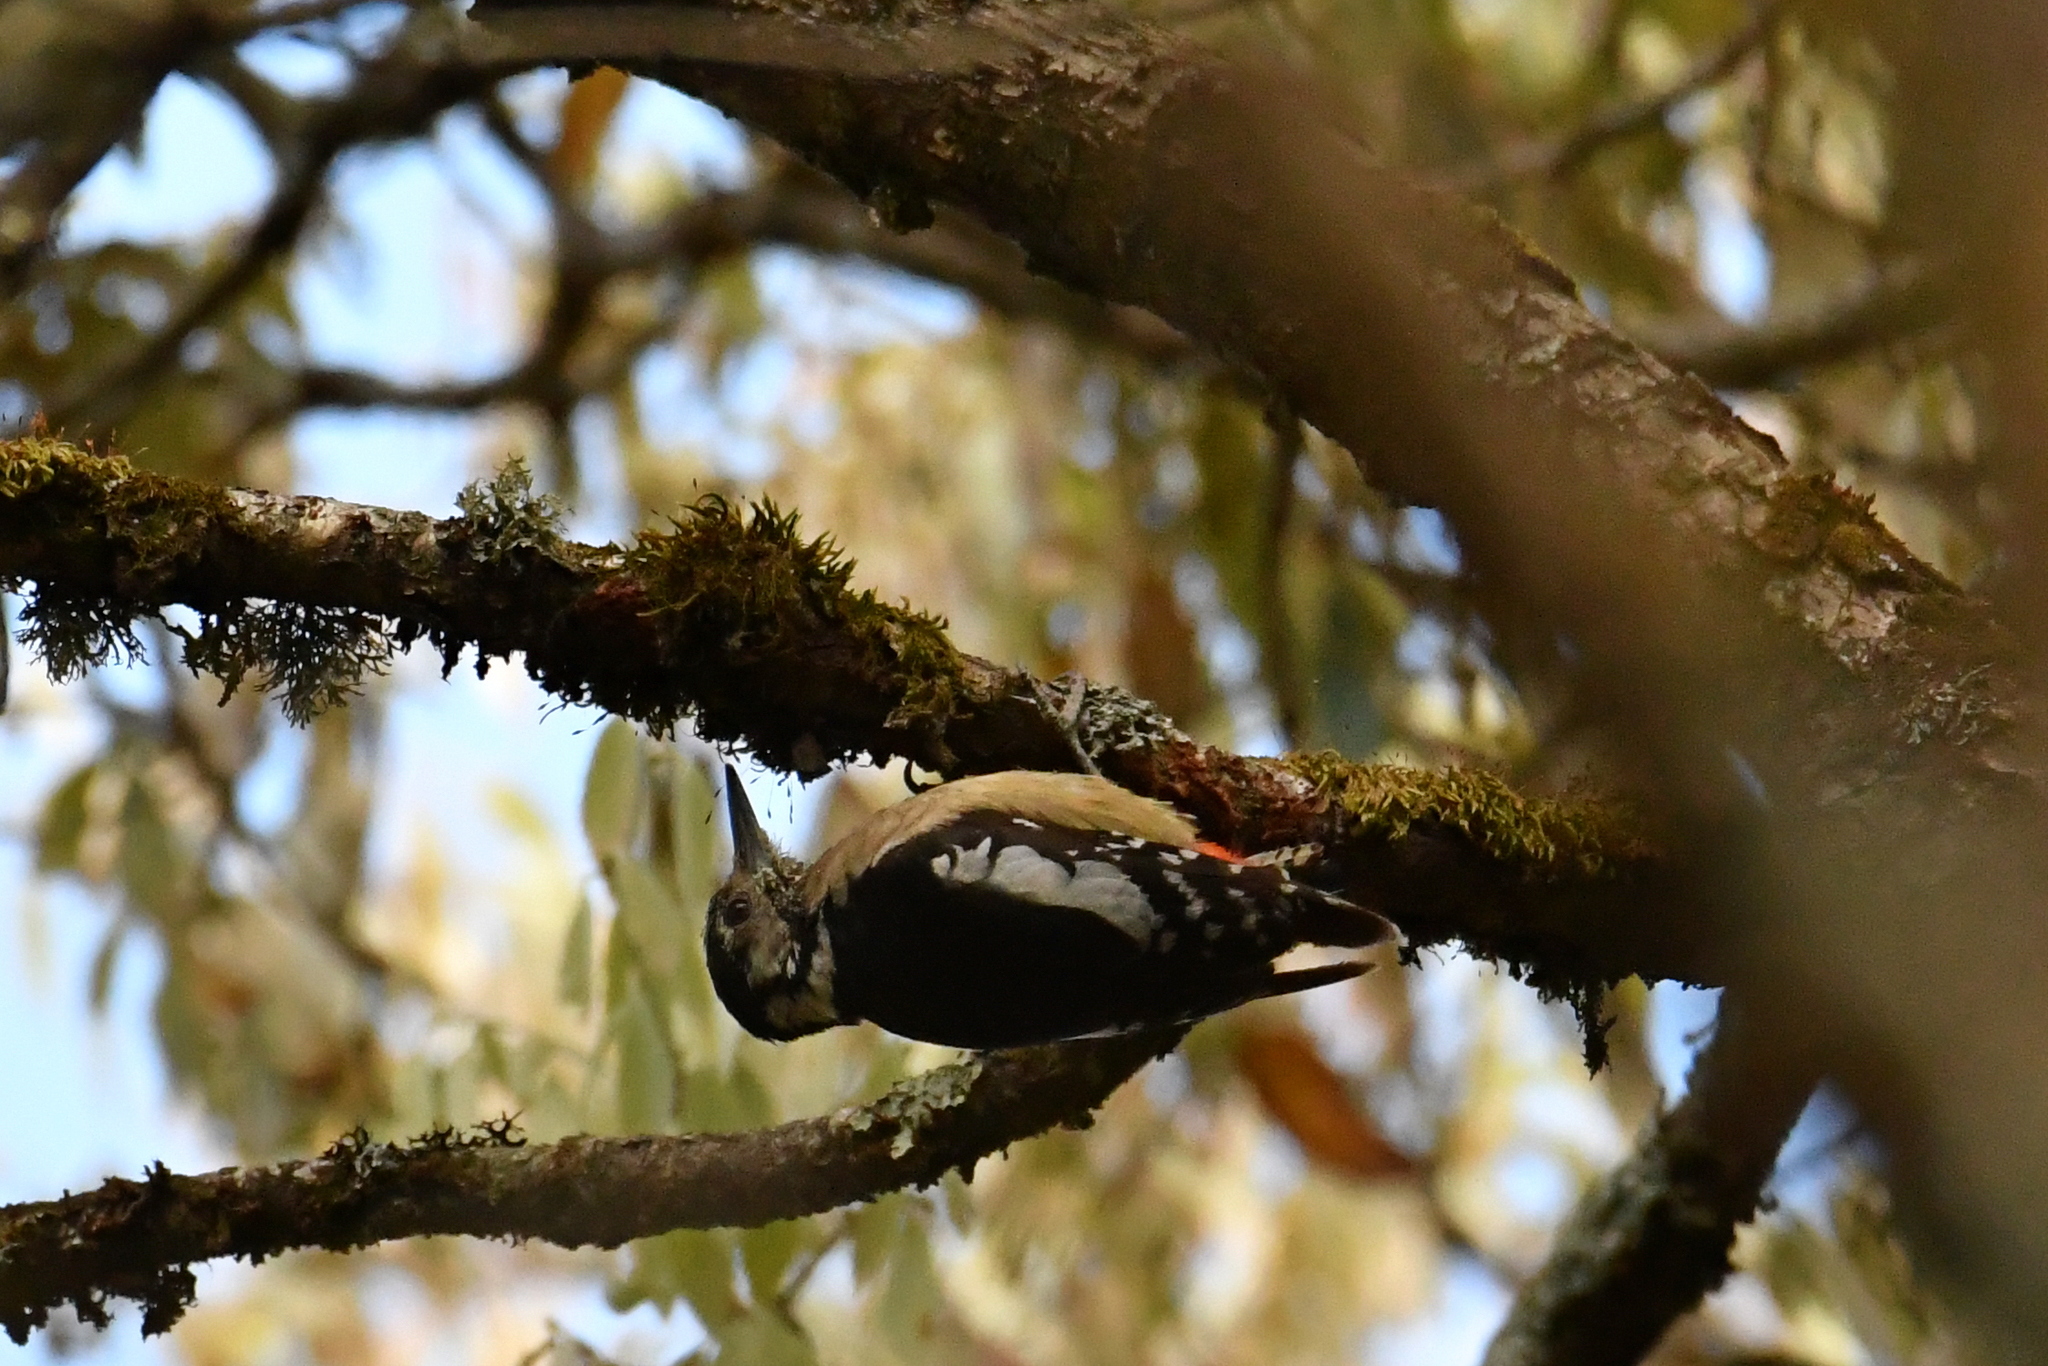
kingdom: Animalia
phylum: Chordata
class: Aves
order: Piciformes
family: Picidae
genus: Dendrocopos
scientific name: Dendrocopos himalayensis
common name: Himalayan woodpecker
